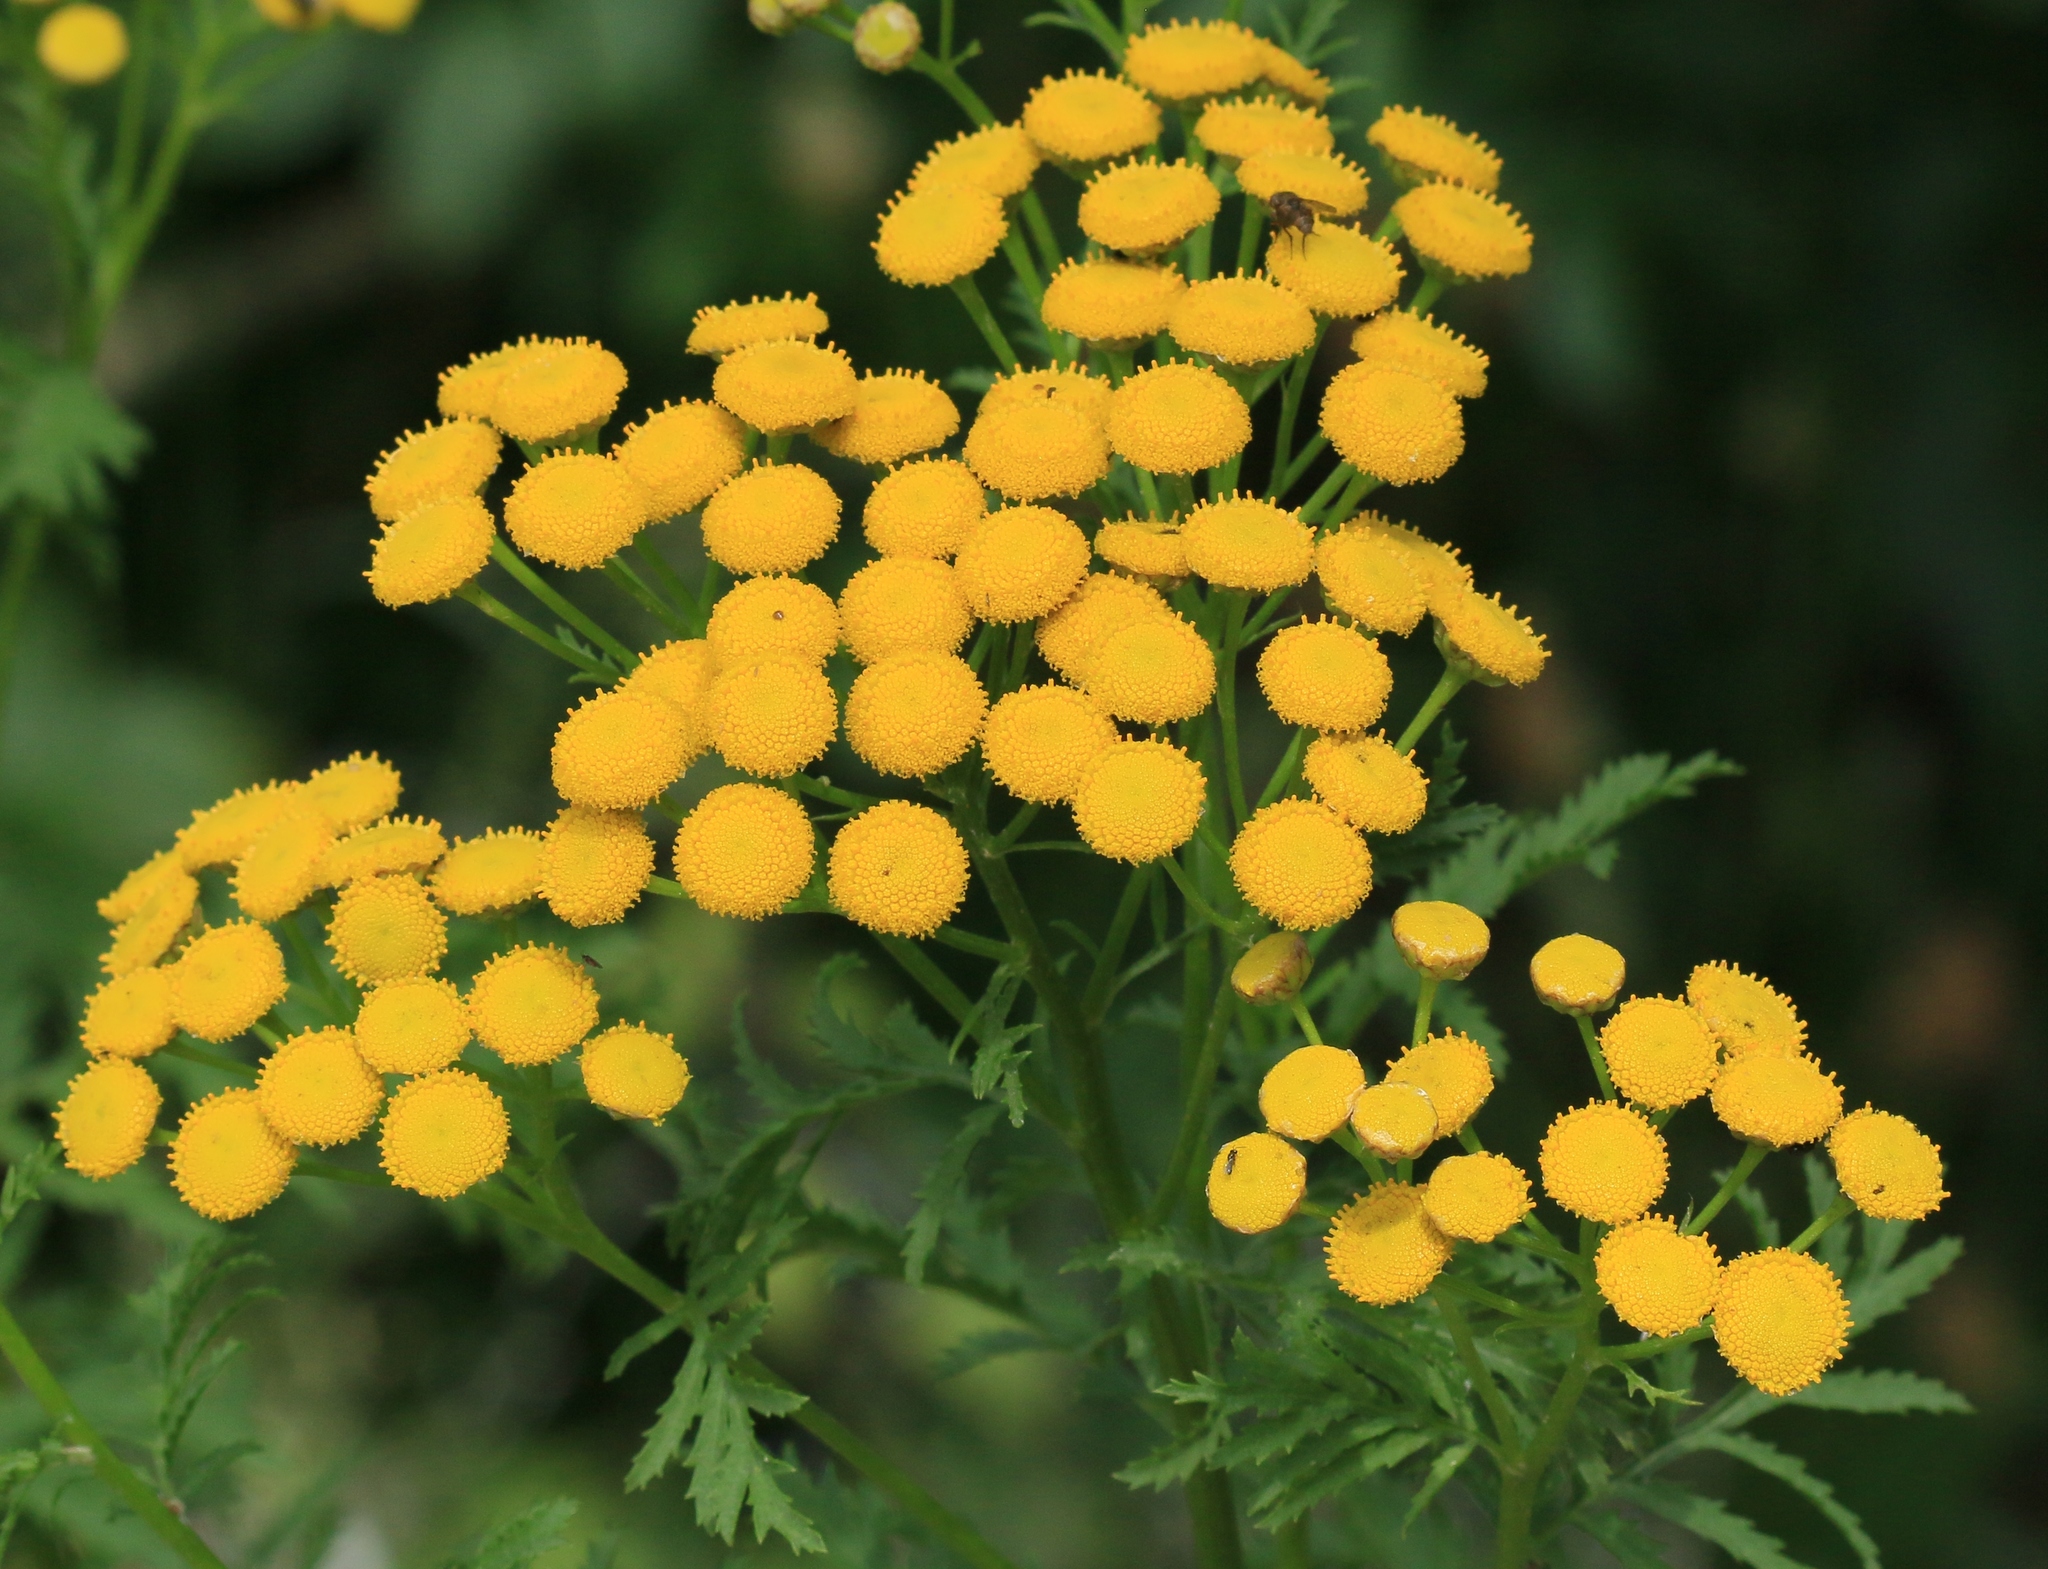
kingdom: Plantae
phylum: Tracheophyta
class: Magnoliopsida
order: Asterales
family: Asteraceae
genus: Tanacetum
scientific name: Tanacetum vulgare
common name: Common tansy
